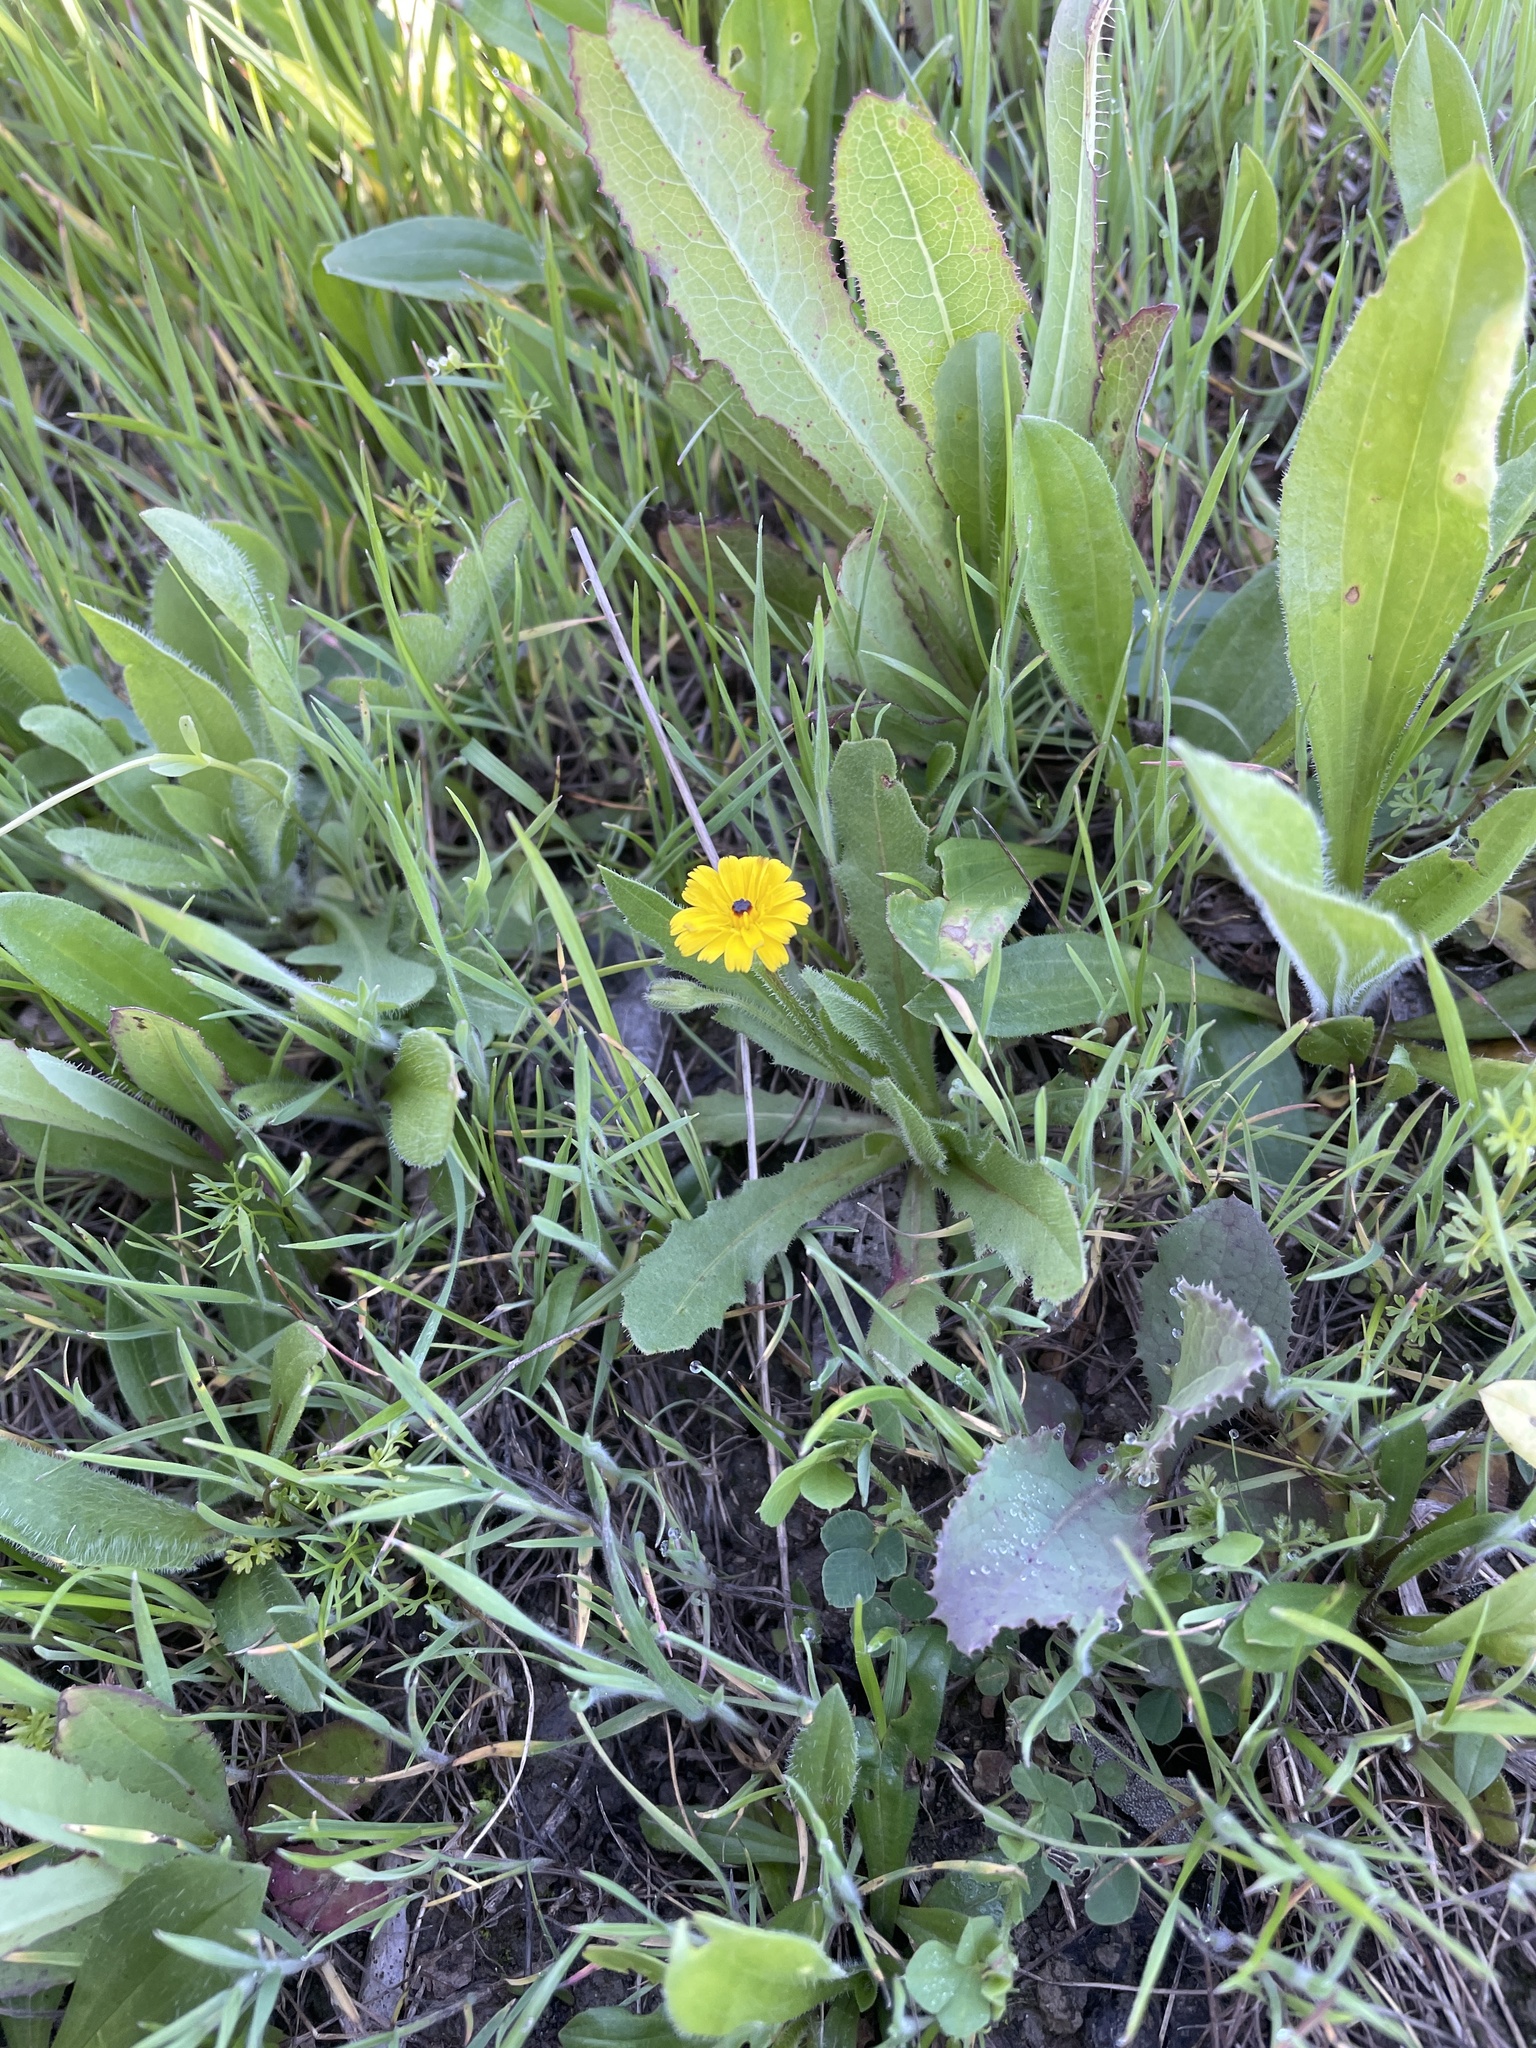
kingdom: Plantae
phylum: Tracheophyta
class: Magnoliopsida
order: Asterales
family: Asteraceae
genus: Hedypnois
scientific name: Hedypnois rhagadioloides
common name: Cretan weed
